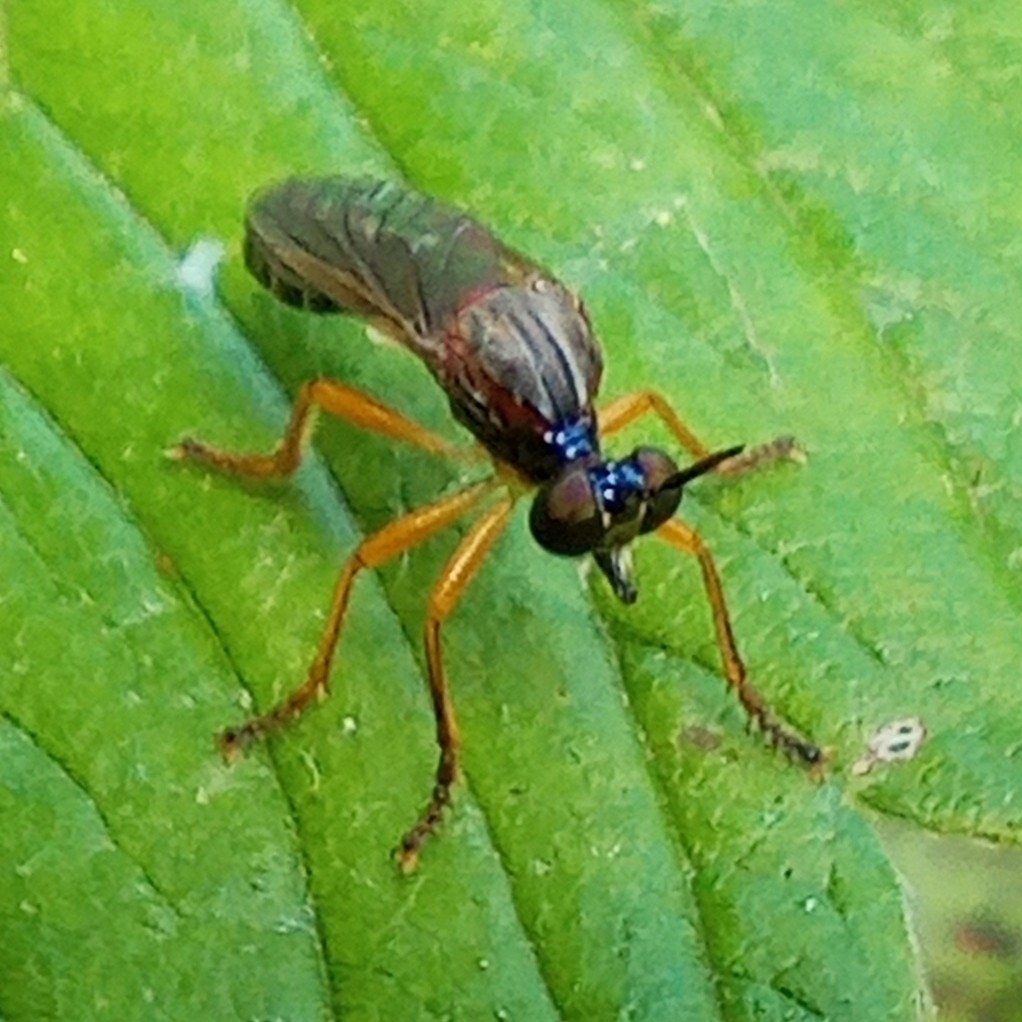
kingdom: Animalia
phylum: Arthropoda
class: Insecta
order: Diptera
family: Asilidae
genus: Dioctria
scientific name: Dioctria humeralis
